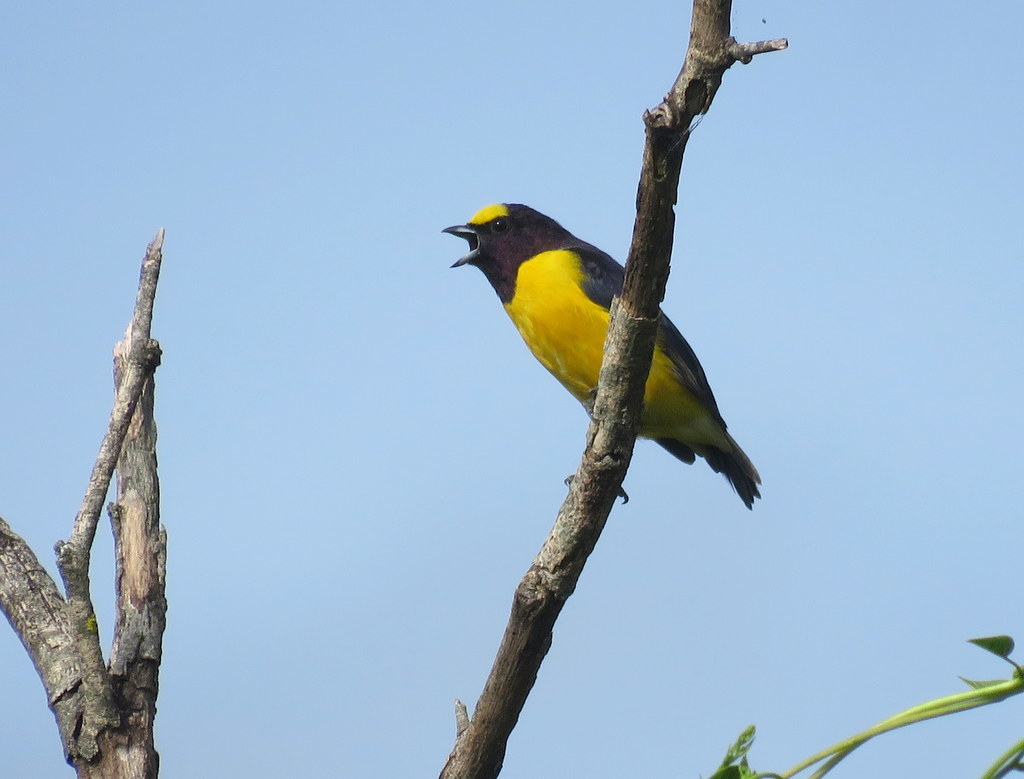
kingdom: Animalia
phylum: Chordata
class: Aves
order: Passeriformes
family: Fringillidae
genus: Euphonia
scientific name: Euphonia chlorotica
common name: Purple-throated euphonia
